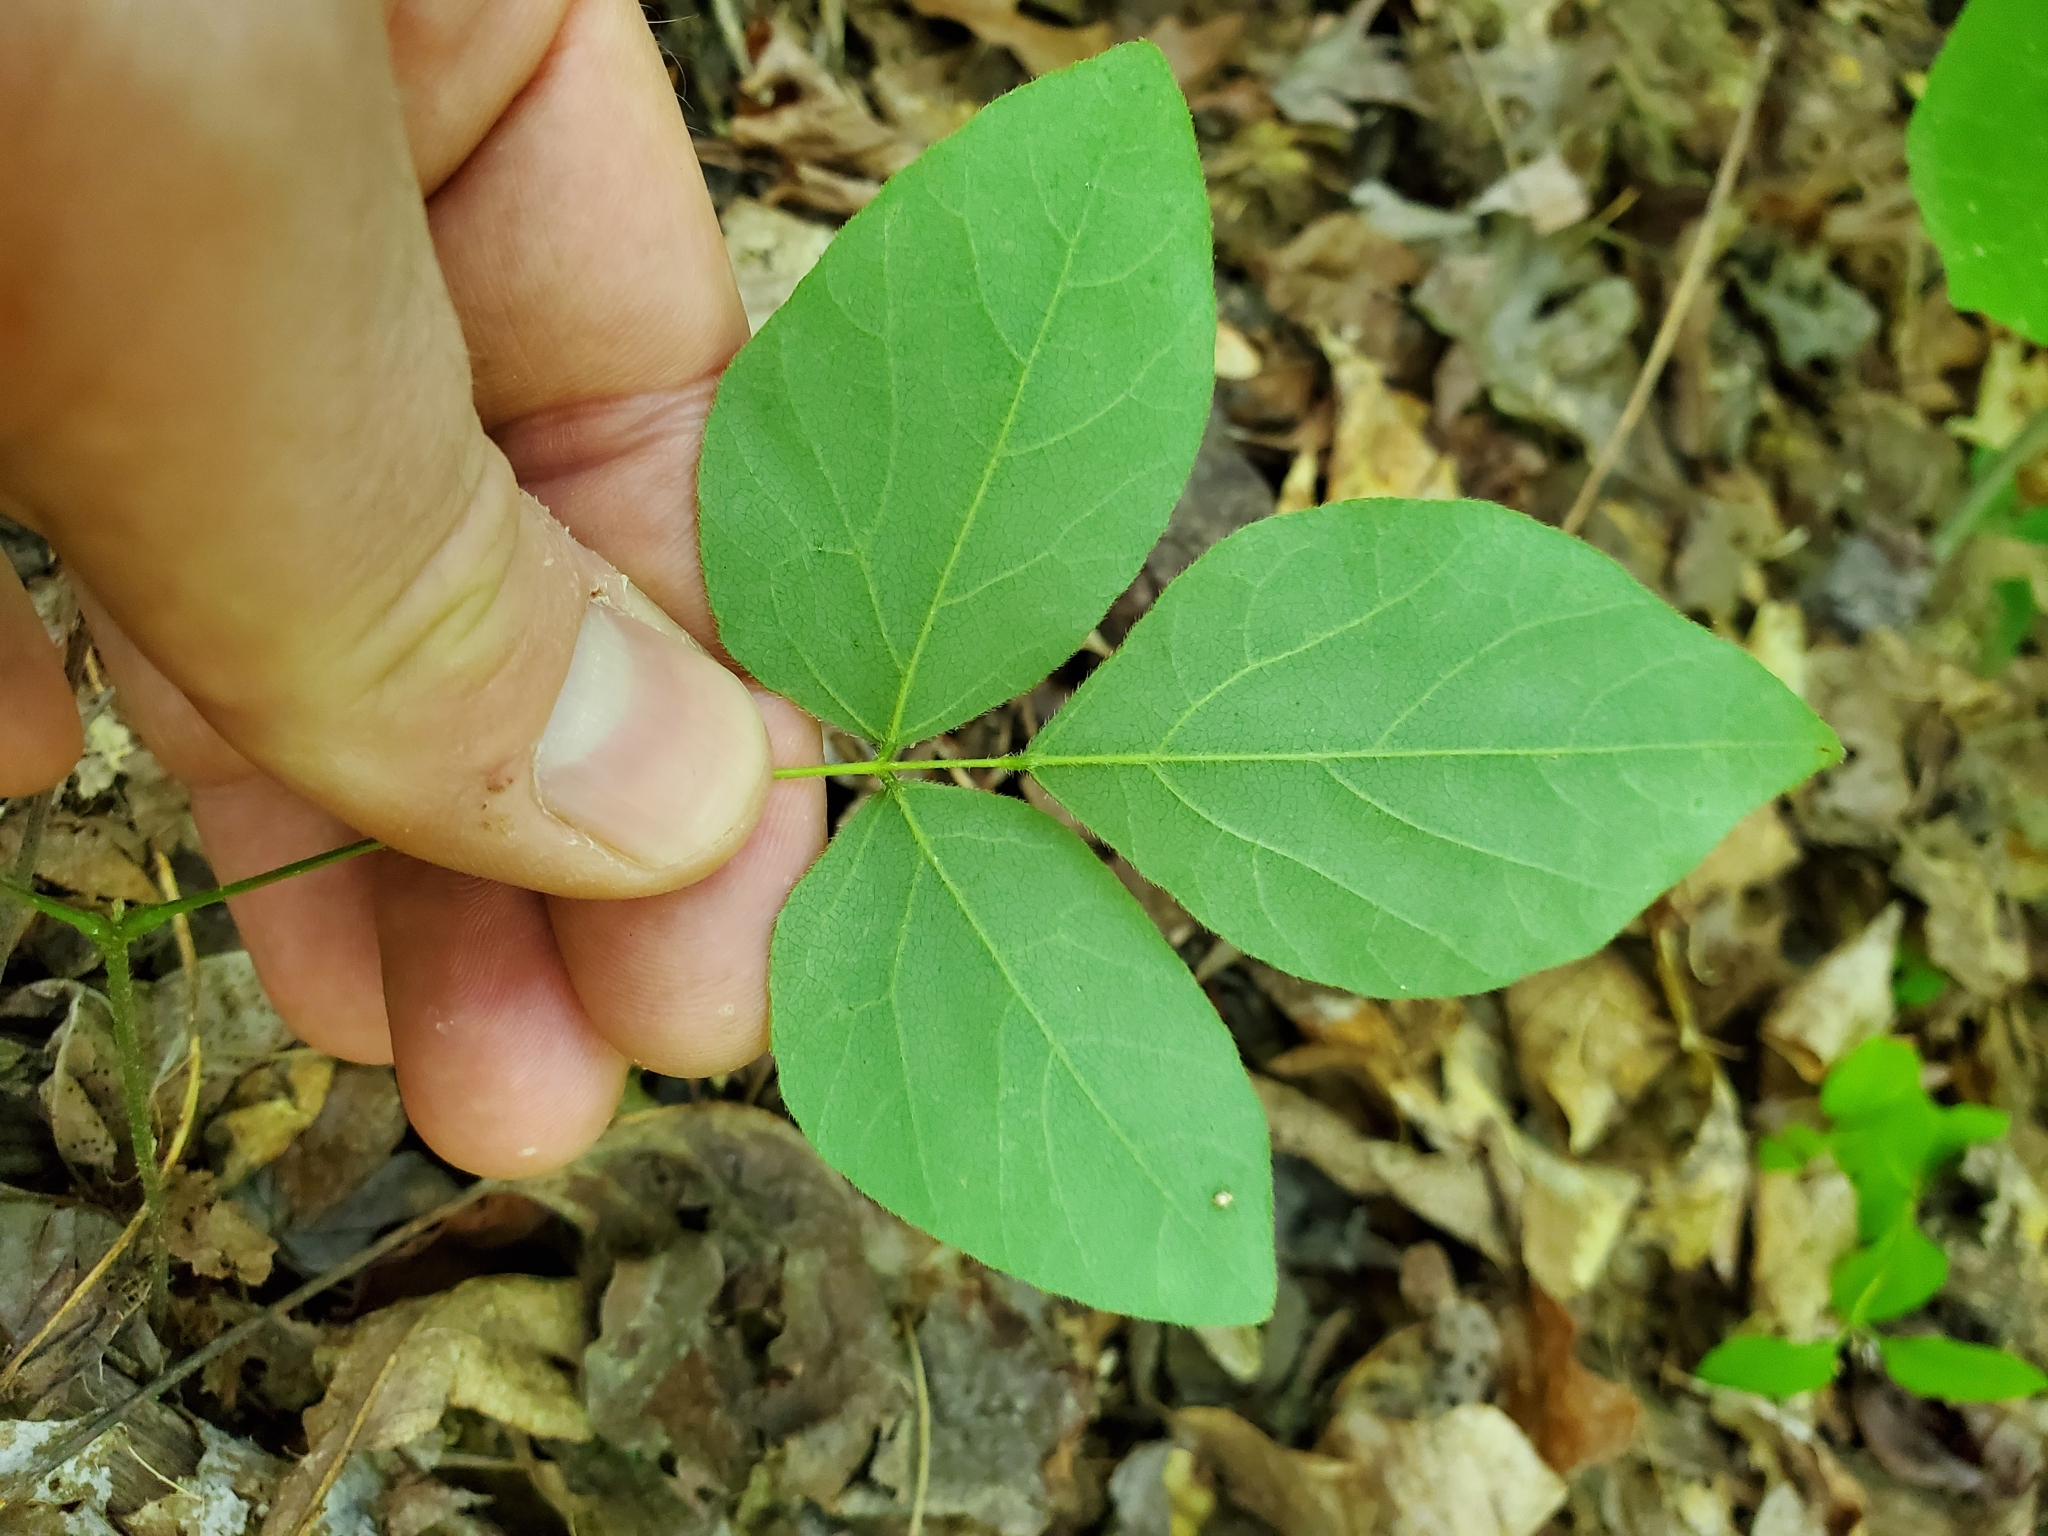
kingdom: Plantae
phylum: Tracheophyta
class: Magnoliopsida
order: Fabales
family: Fabaceae
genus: Hylodesmum
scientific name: Hylodesmum nudiflorum
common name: Bare-stemmed tick-trefoil
